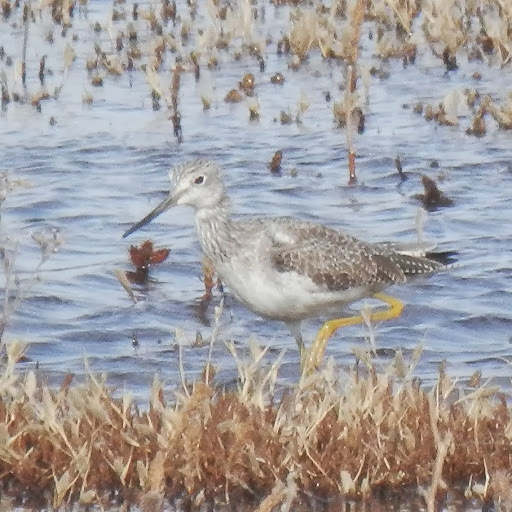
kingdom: Animalia
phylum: Chordata
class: Aves
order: Charadriiformes
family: Scolopacidae
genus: Tringa
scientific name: Tringa melanoleuca
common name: Greater yellowlegs
